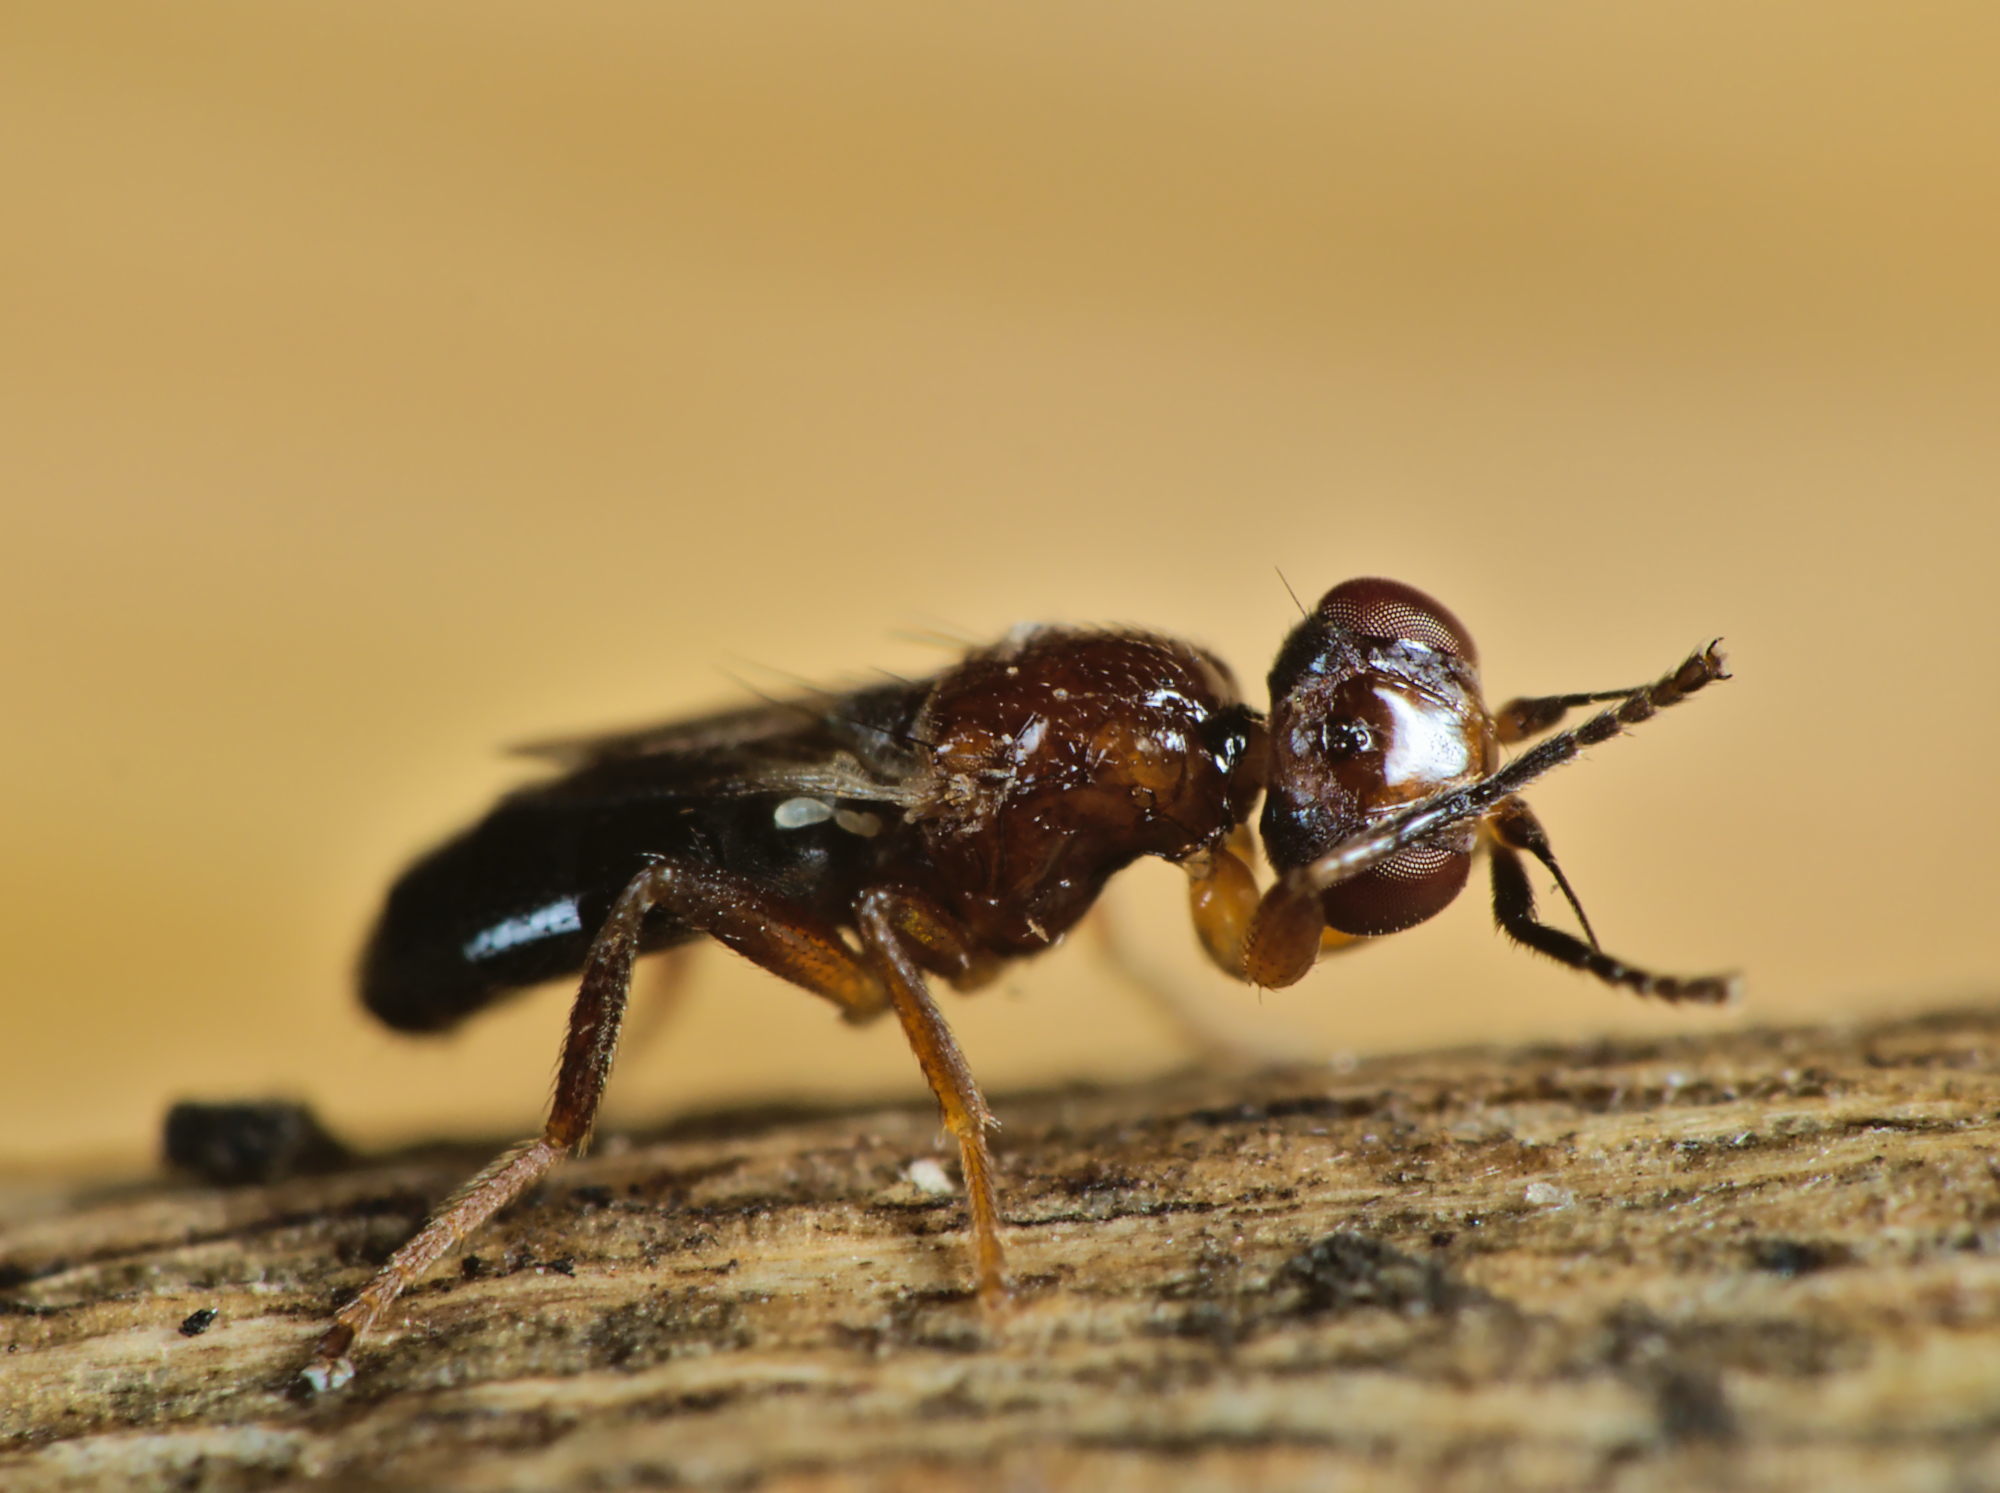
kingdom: Animalia
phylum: Arthropoda
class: Insecta
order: Diptera
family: Chloropidae
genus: Elachiptera
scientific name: Elachiptera brevipennis
